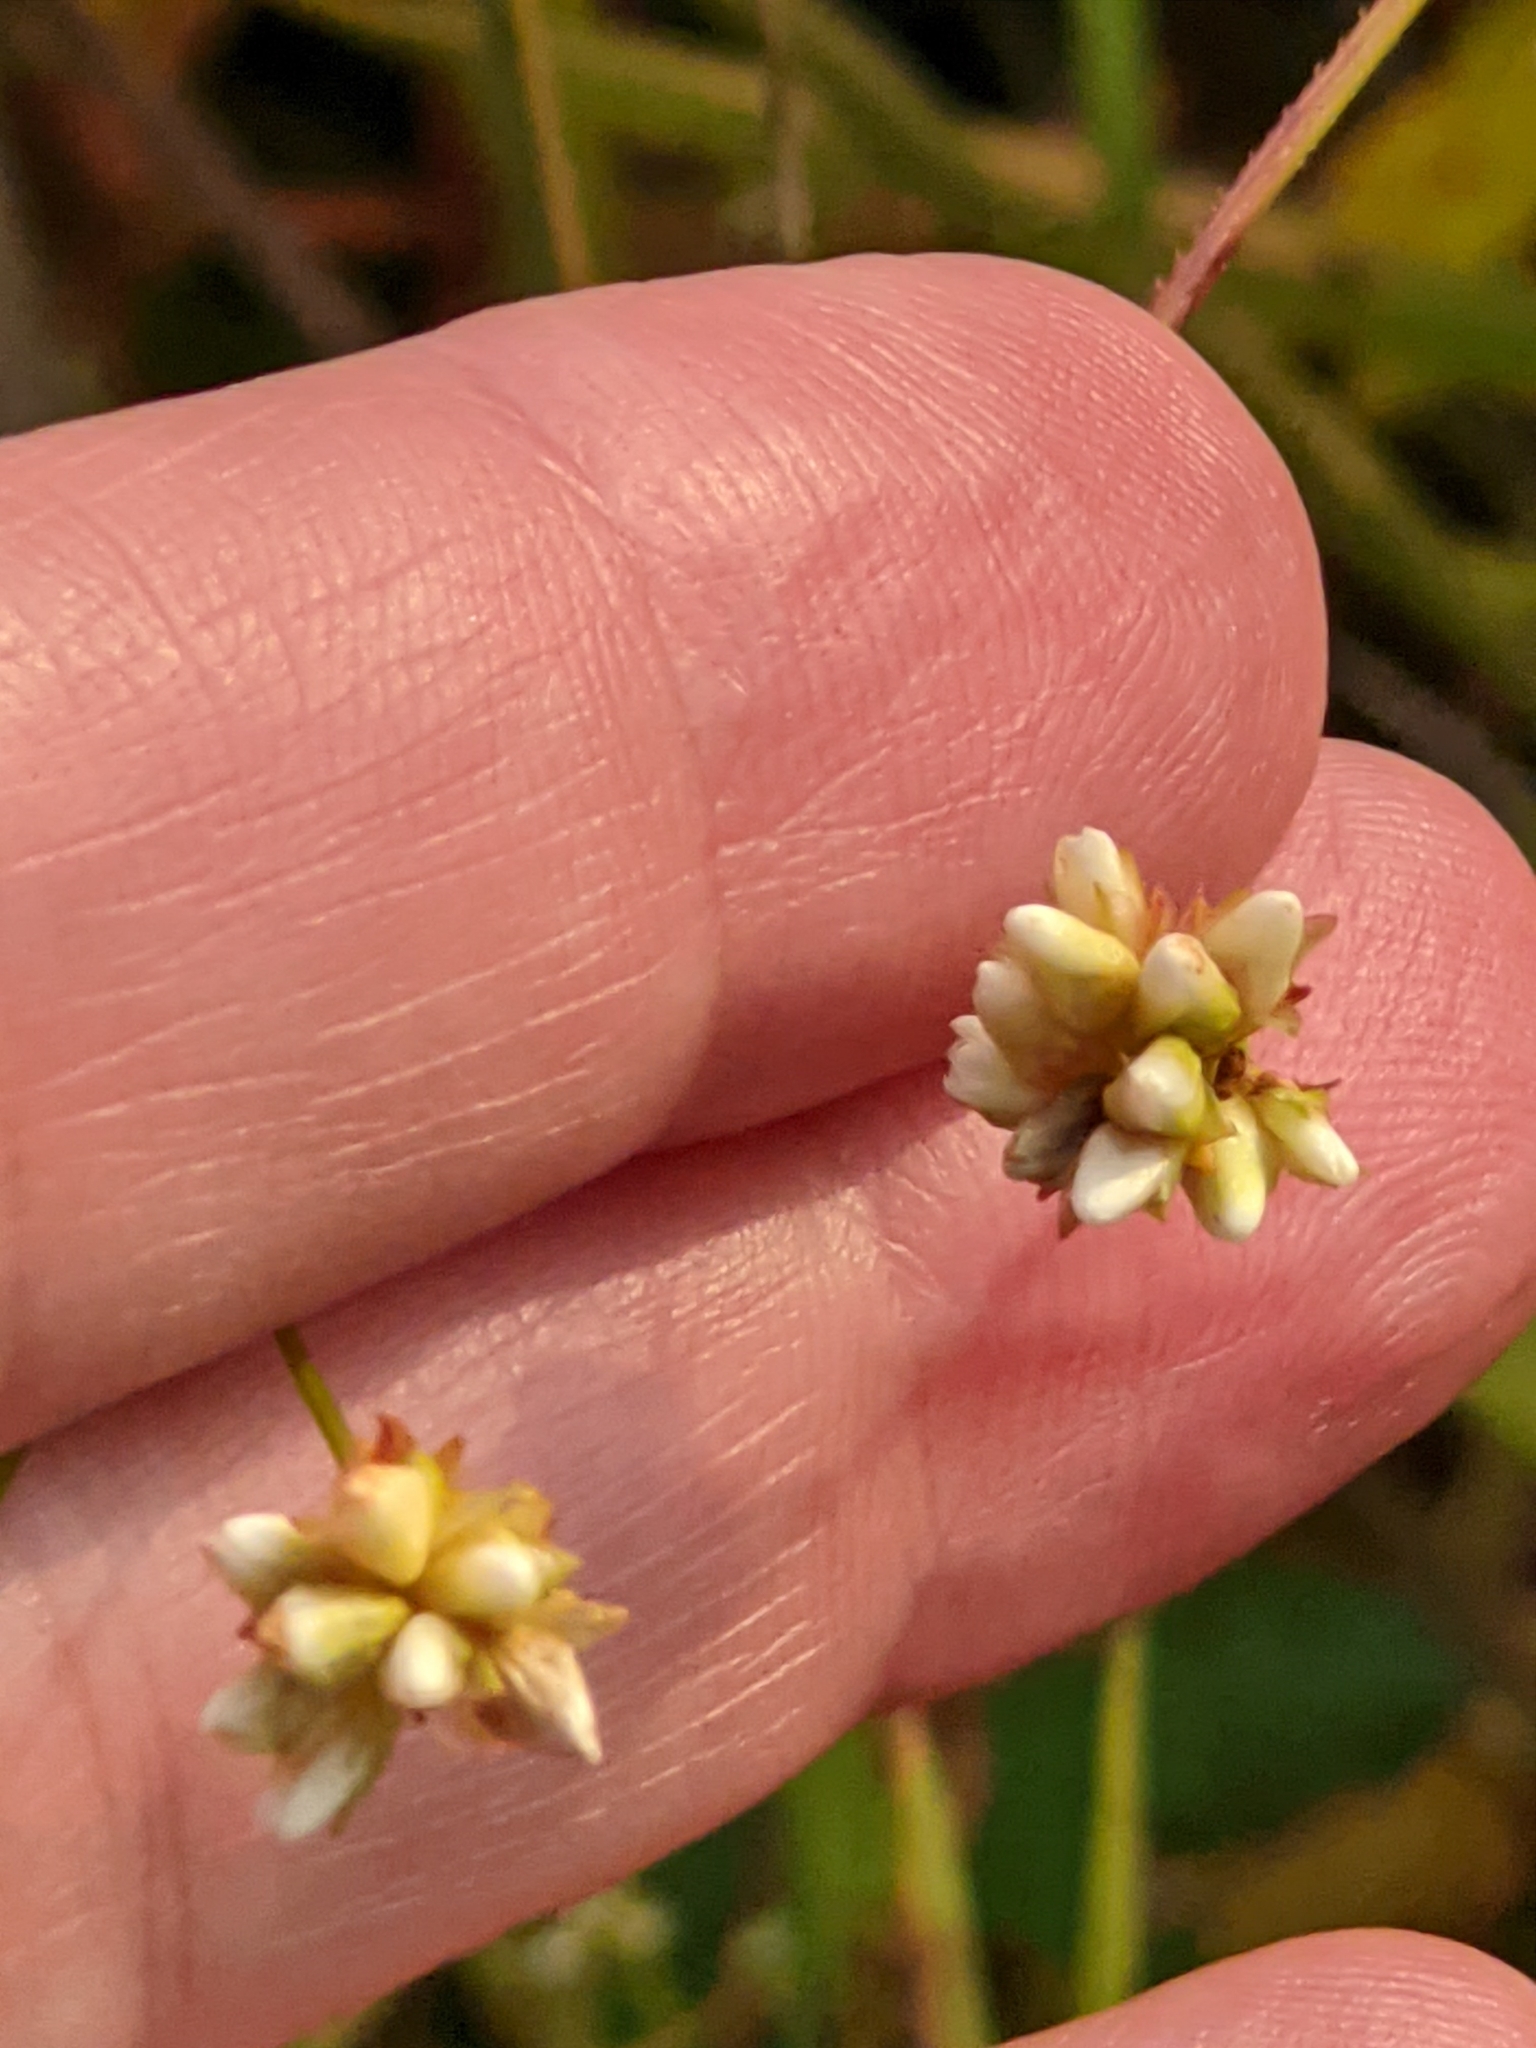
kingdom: Plantae
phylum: Tracheophyta
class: Magnoliopsida
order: Caryophyllales
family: Polygonaceae
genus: Persicaria
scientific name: Persicaria sagittata
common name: American tearthumb
